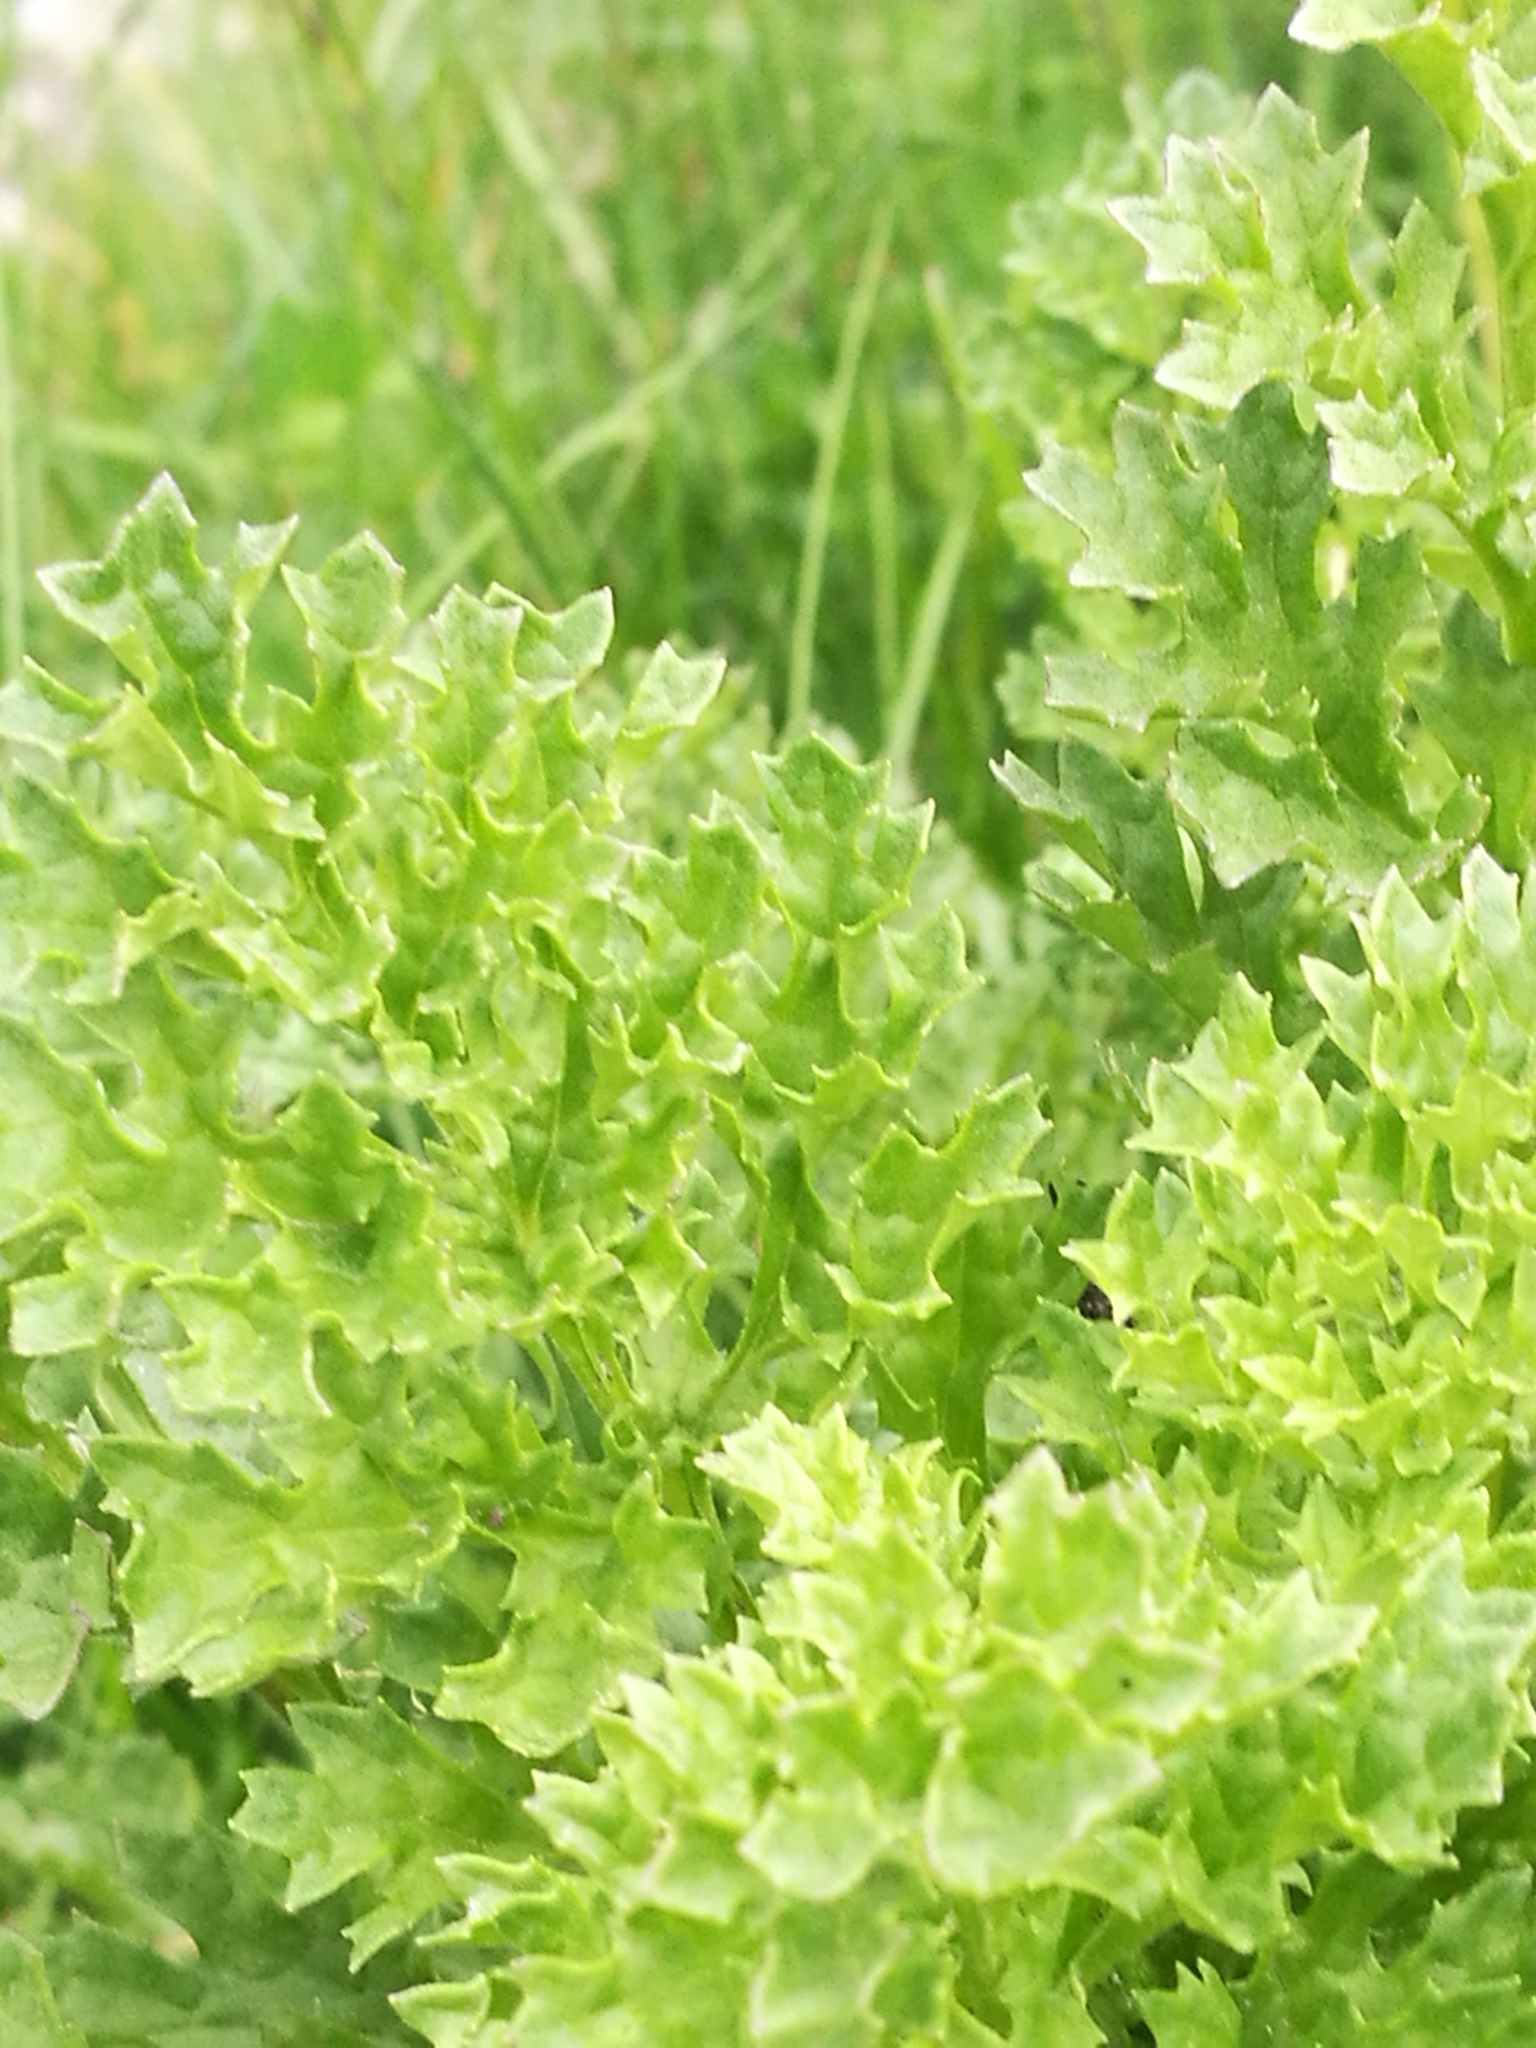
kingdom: Plantae
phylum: Tracheophyta
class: Magnoliopsida
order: Asterales
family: Asteraceae
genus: Jacobaea
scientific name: Jacobaea vulgaris
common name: Stinking willie
